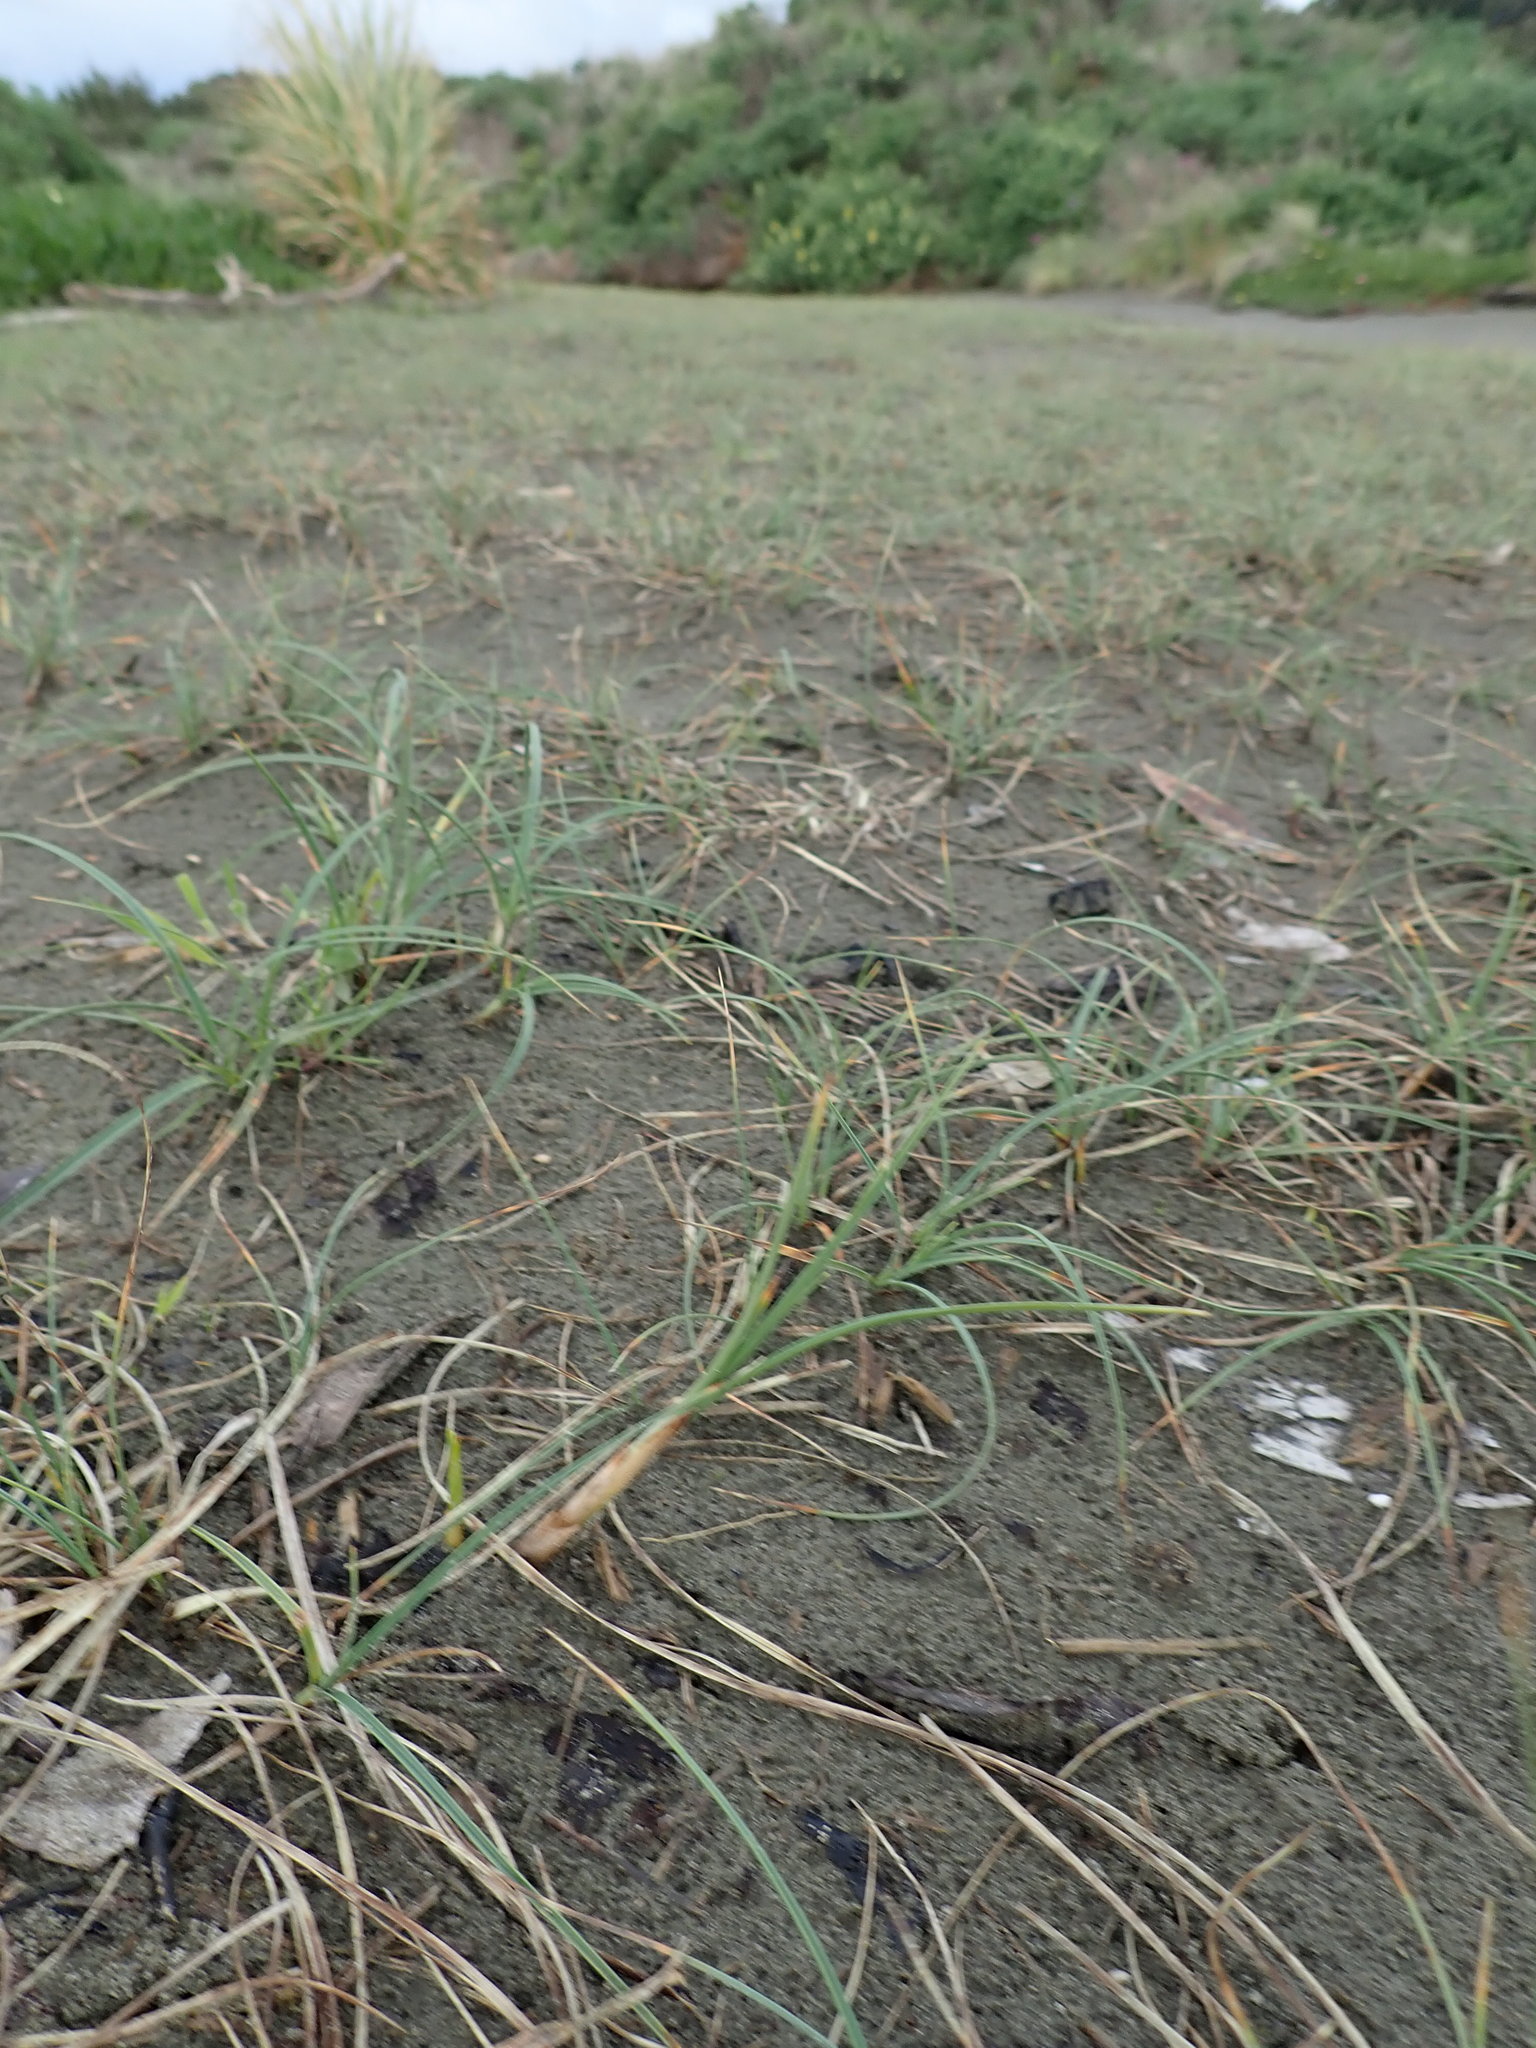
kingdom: Plantae
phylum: Tracheophyta
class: Liliopsida
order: Poales
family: Cyperaceae
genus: Carex
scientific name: Carex pumila
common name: Dwarf sedge
